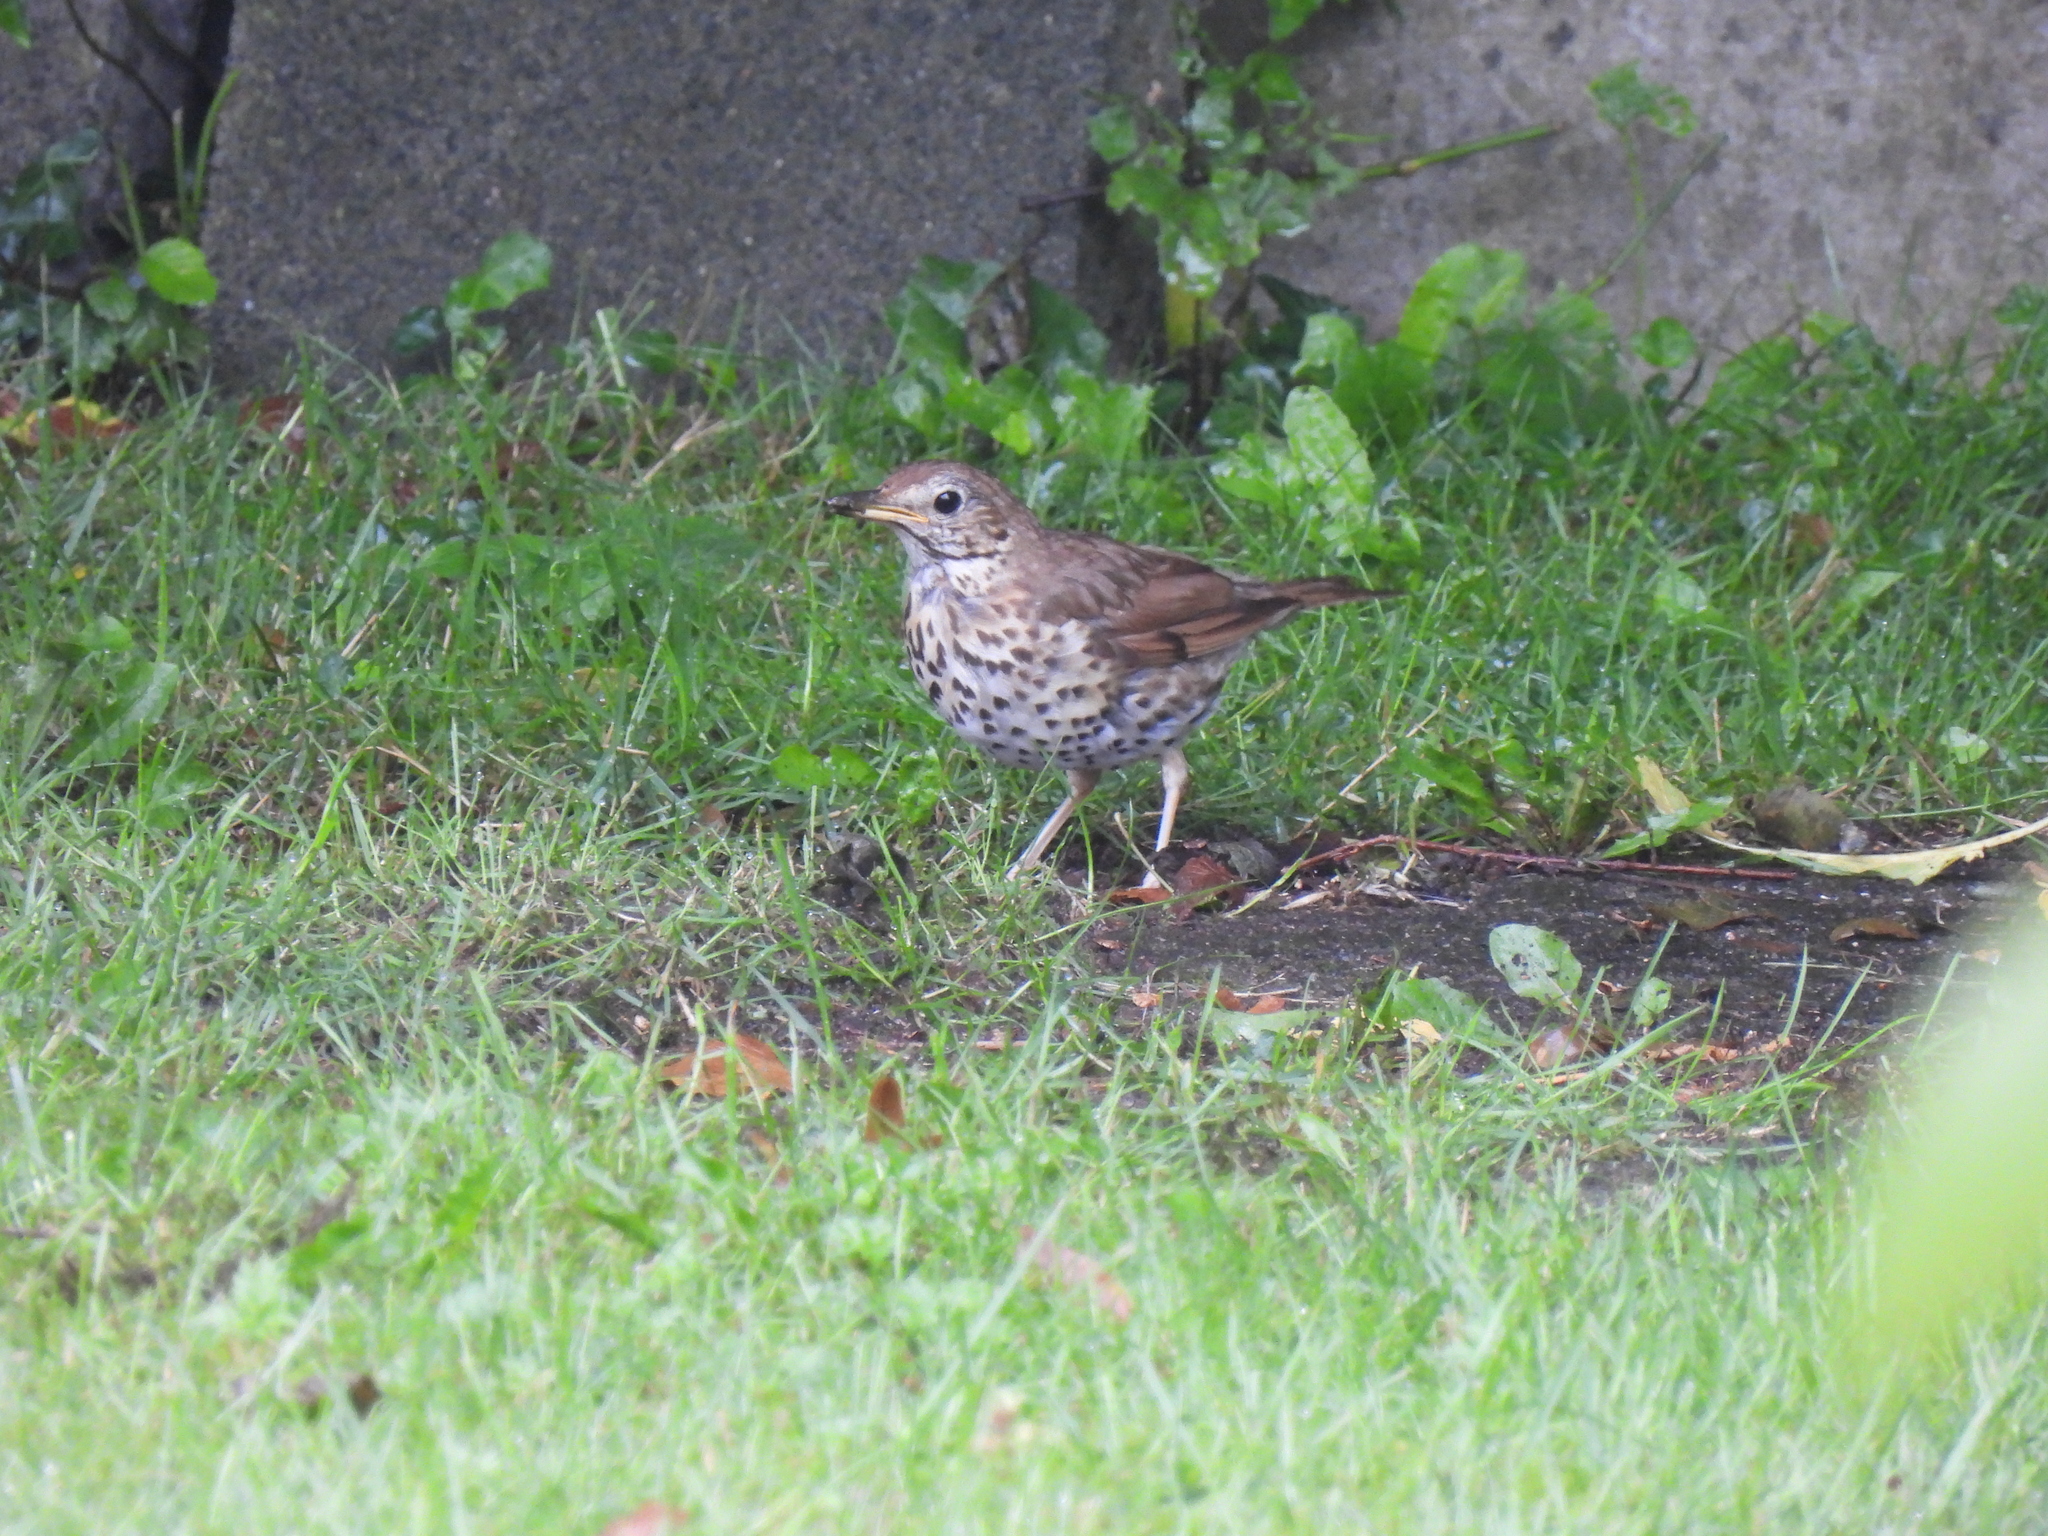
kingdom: Animalia
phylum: Chordata
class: Aves
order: Passeriformes
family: Turdidae
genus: Turdus
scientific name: Turdus philomelos
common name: Song thrush
